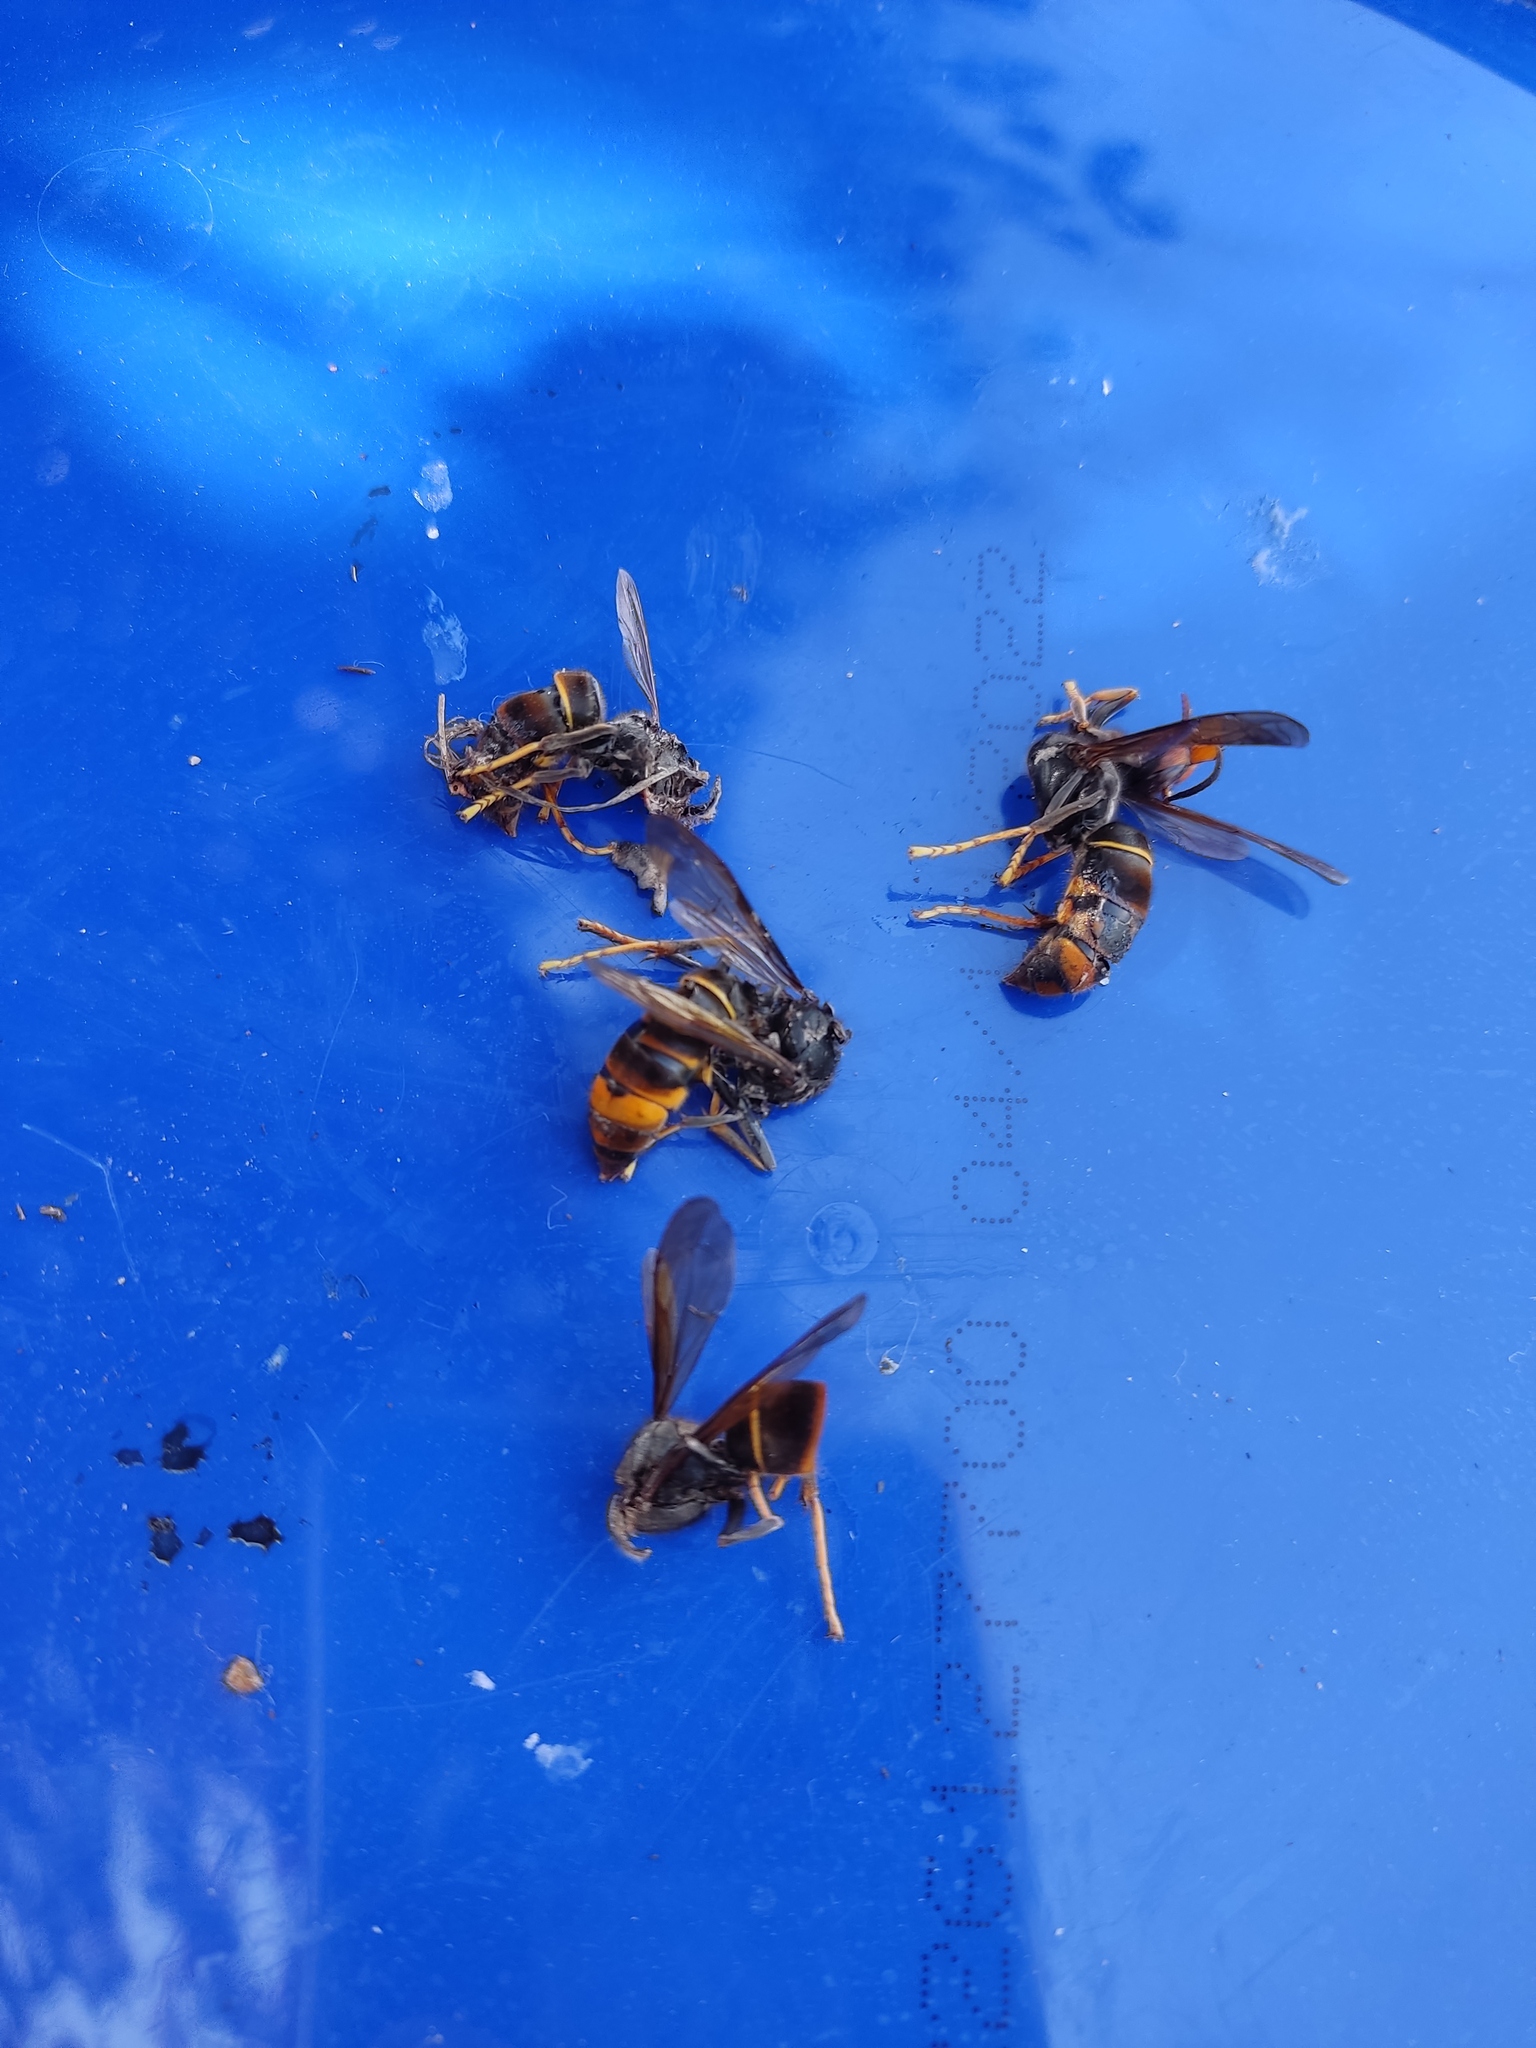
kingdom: Animalia
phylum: Arthropoda
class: Insecta
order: Hymenoptera
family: Vespidae
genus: Vespa
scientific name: Vespa velutina
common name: Asian hornet
